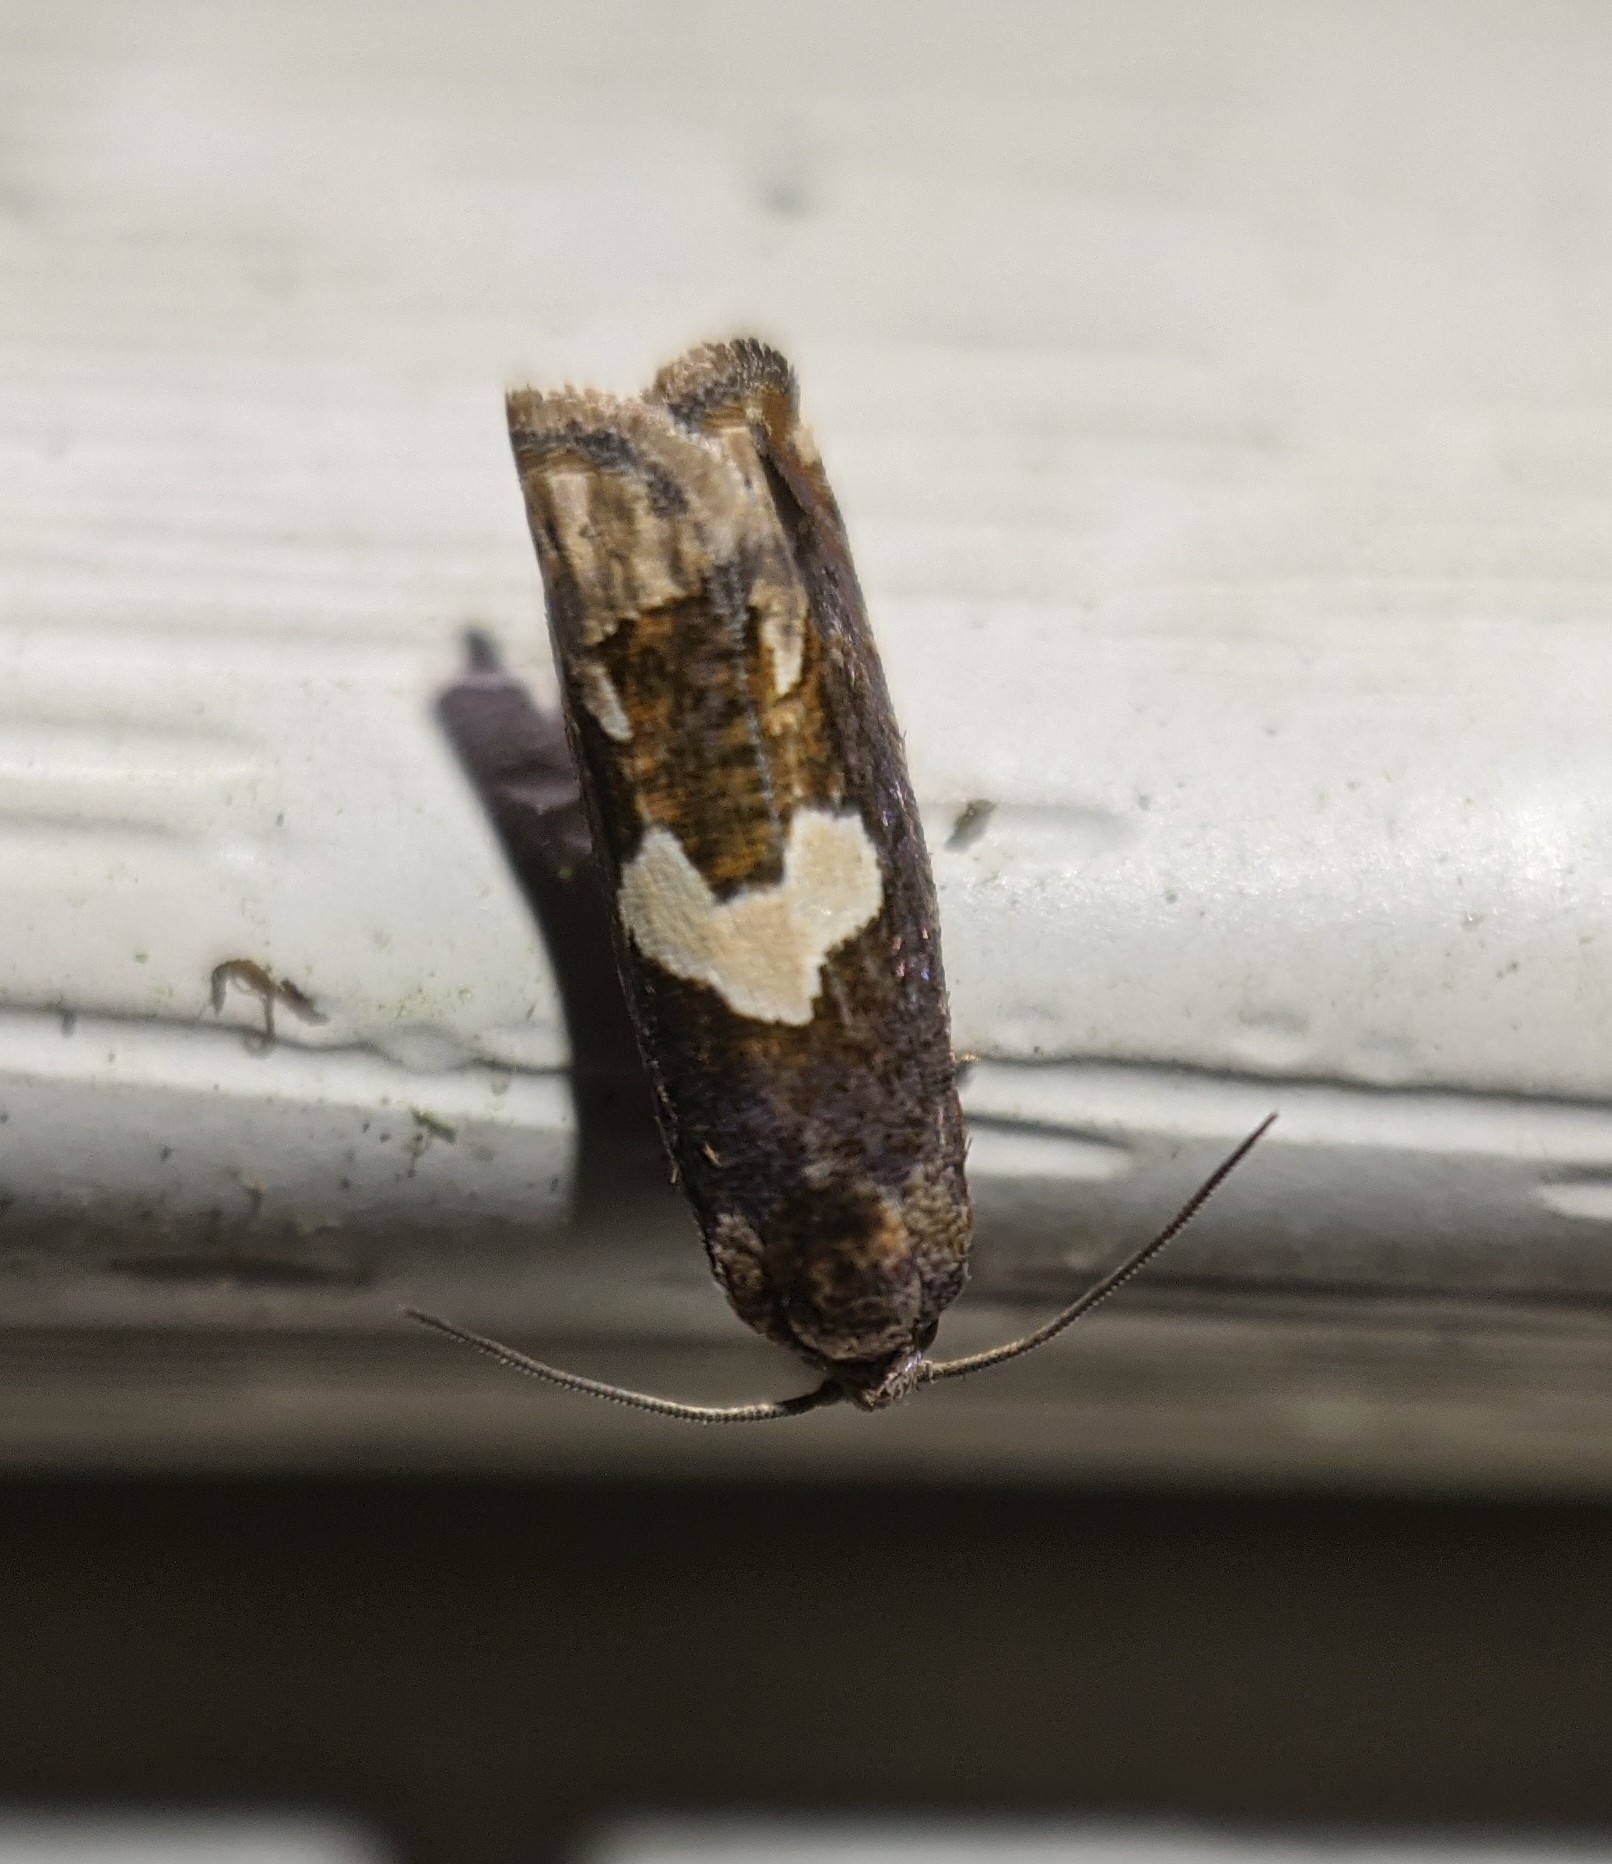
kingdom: Animalia
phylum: Arthropoda
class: Insecta
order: Lepidoptera
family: Tortricidae
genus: Epiblema
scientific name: Epiblema otiosana
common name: Bidens borer moth
